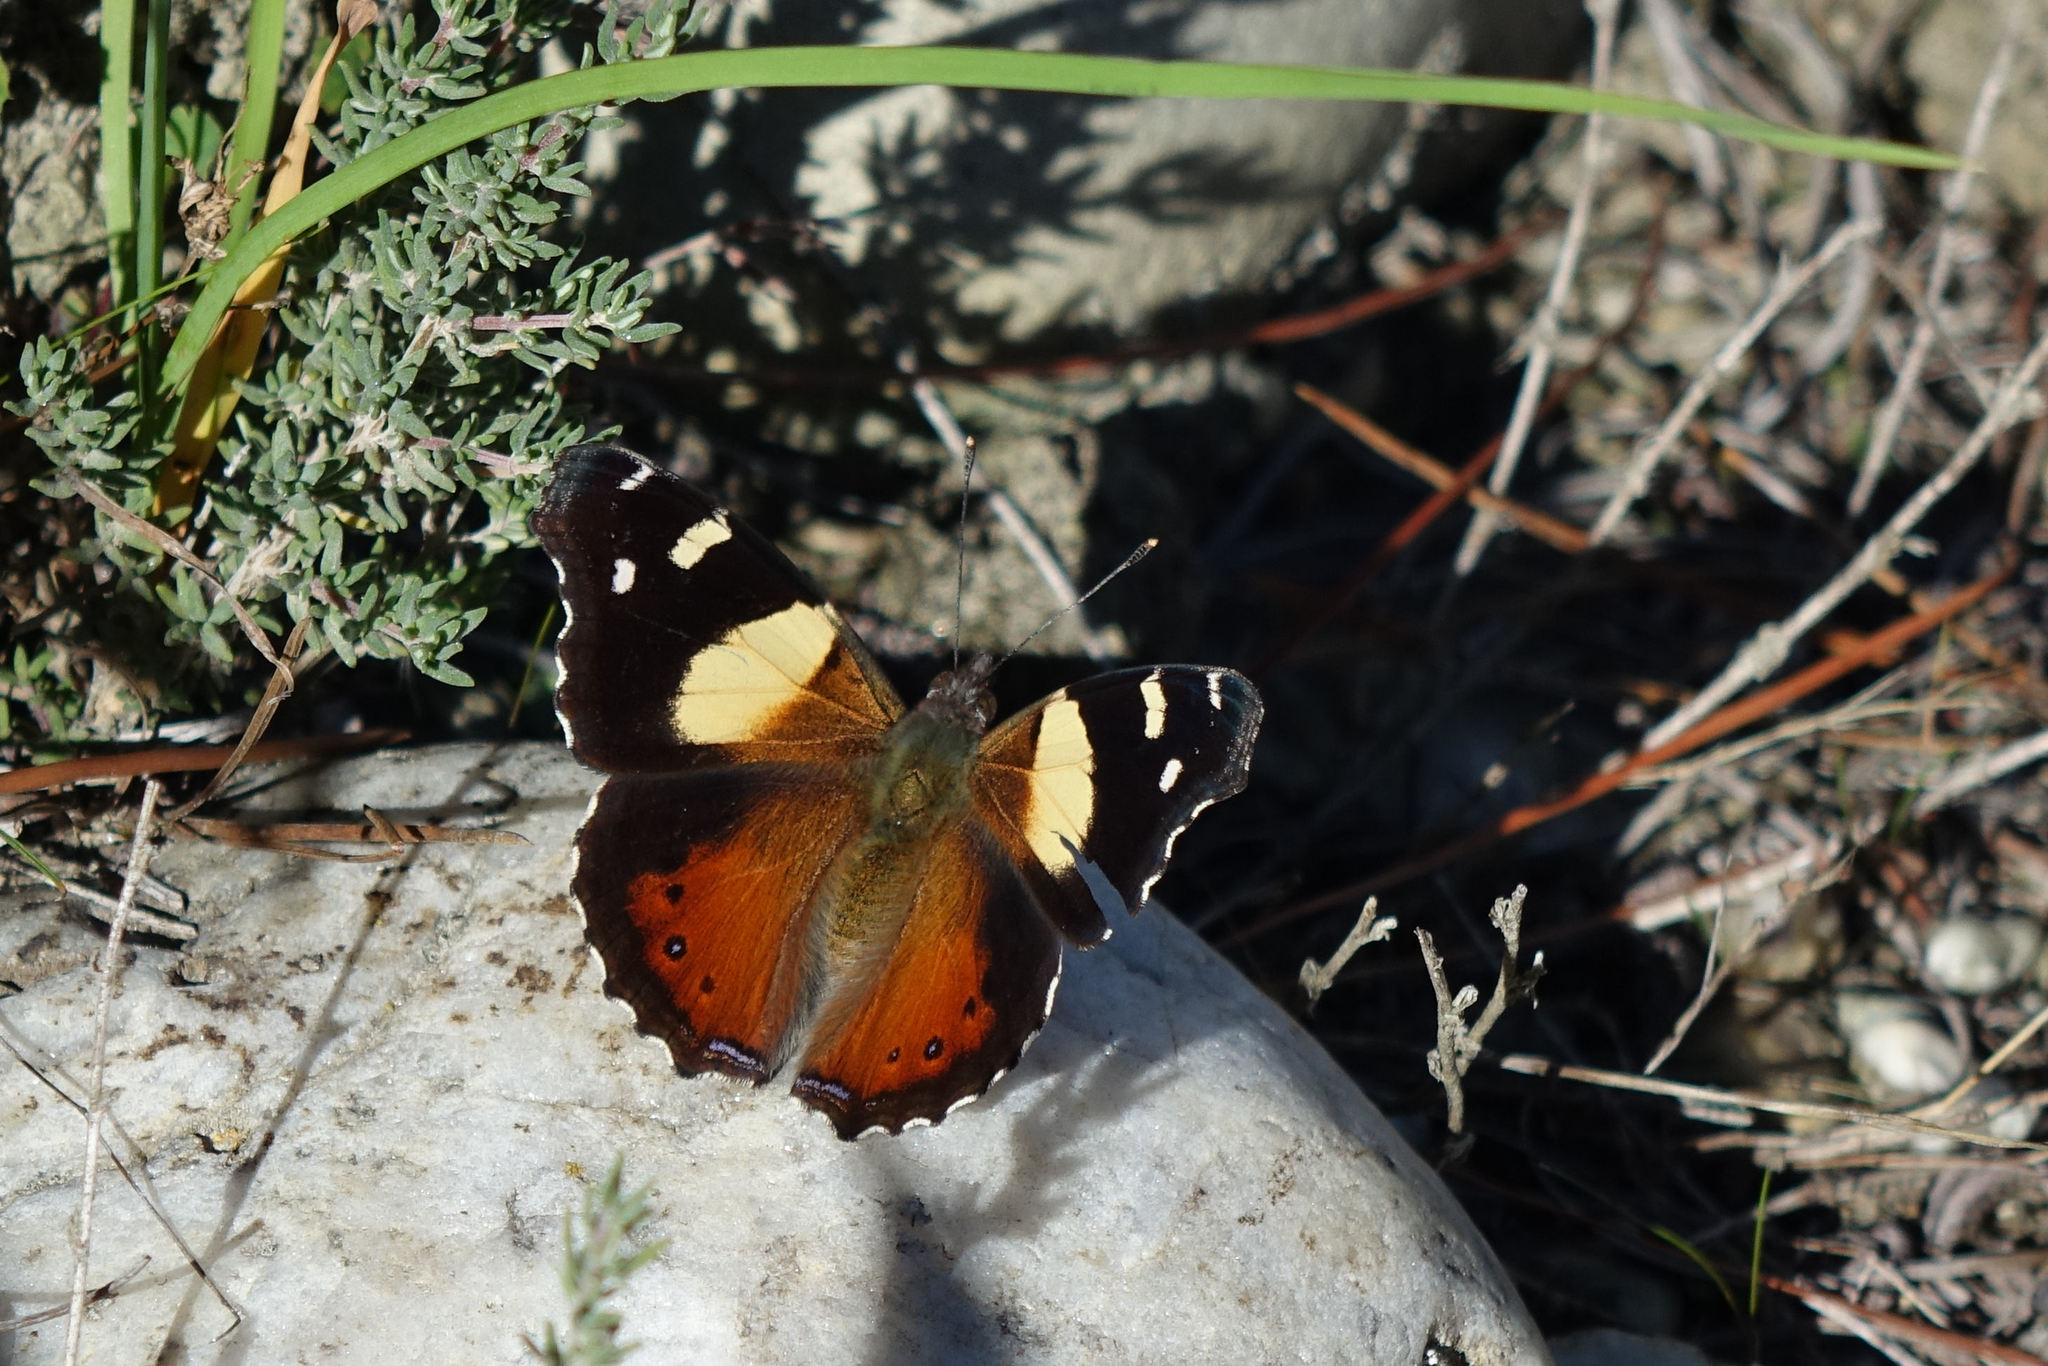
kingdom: Animalia
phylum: Arthropoda
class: Insecta
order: Lepidoptera
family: Nymphalidae
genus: Vanessa
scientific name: Vanessa itea
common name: Yellow admiral
